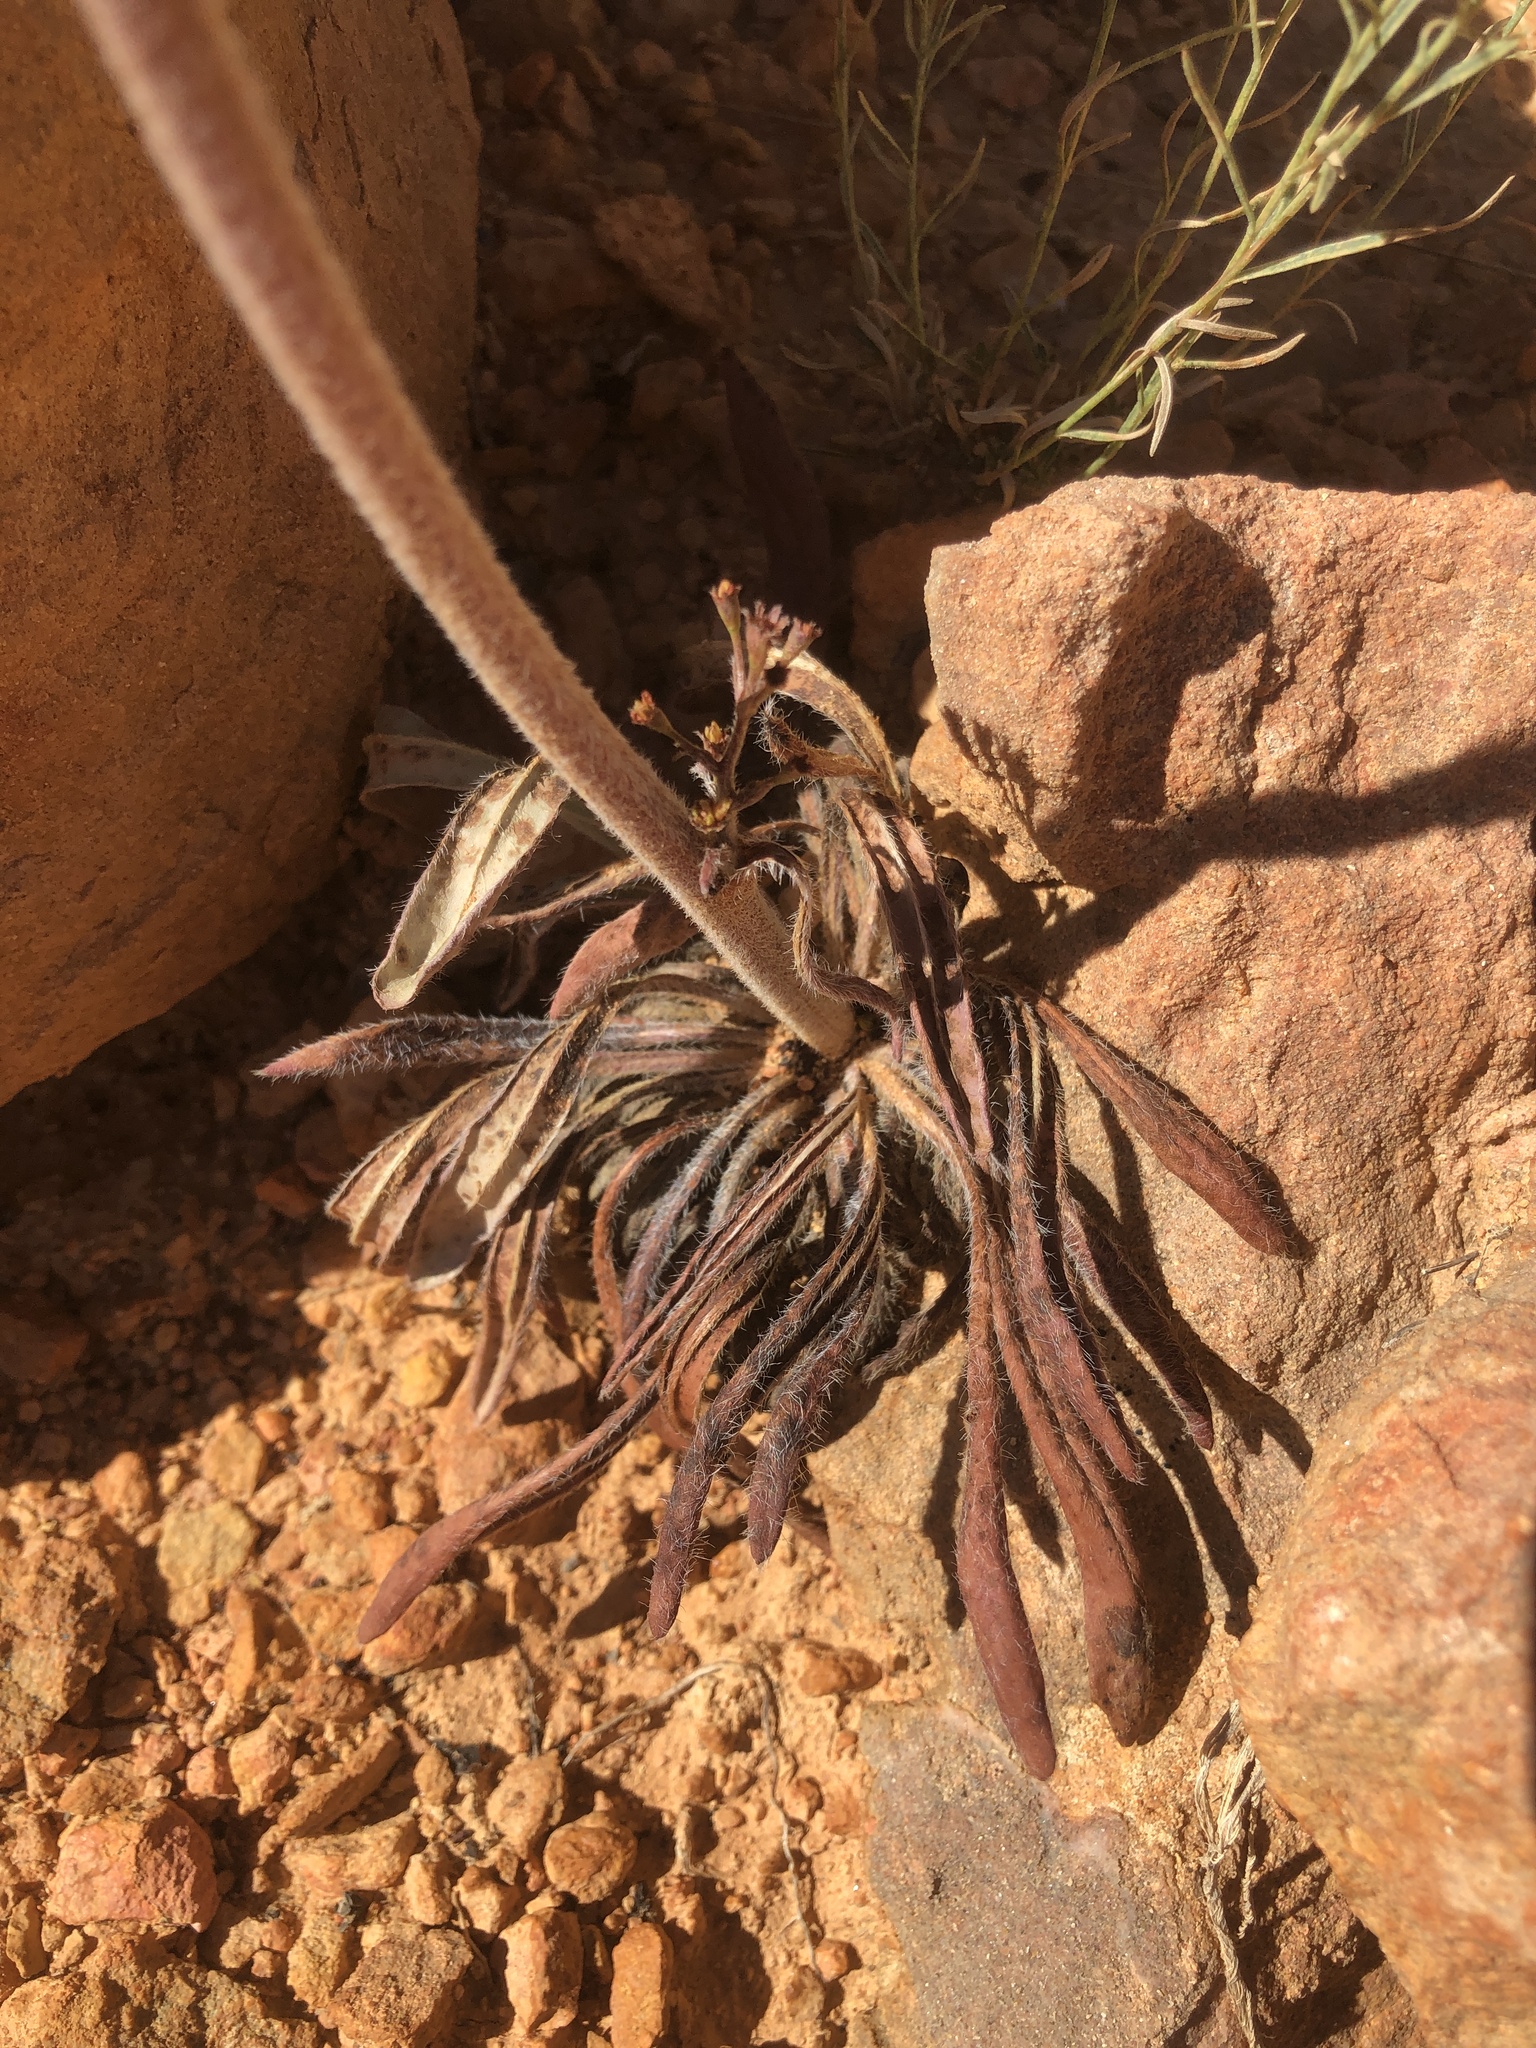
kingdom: Plantae
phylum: Tracheophyta
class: Magnoliopsida
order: Caryophyllales
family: Polygonaceae
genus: Eriogonum
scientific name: Eriogonum alatum
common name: Winged eriogonum
